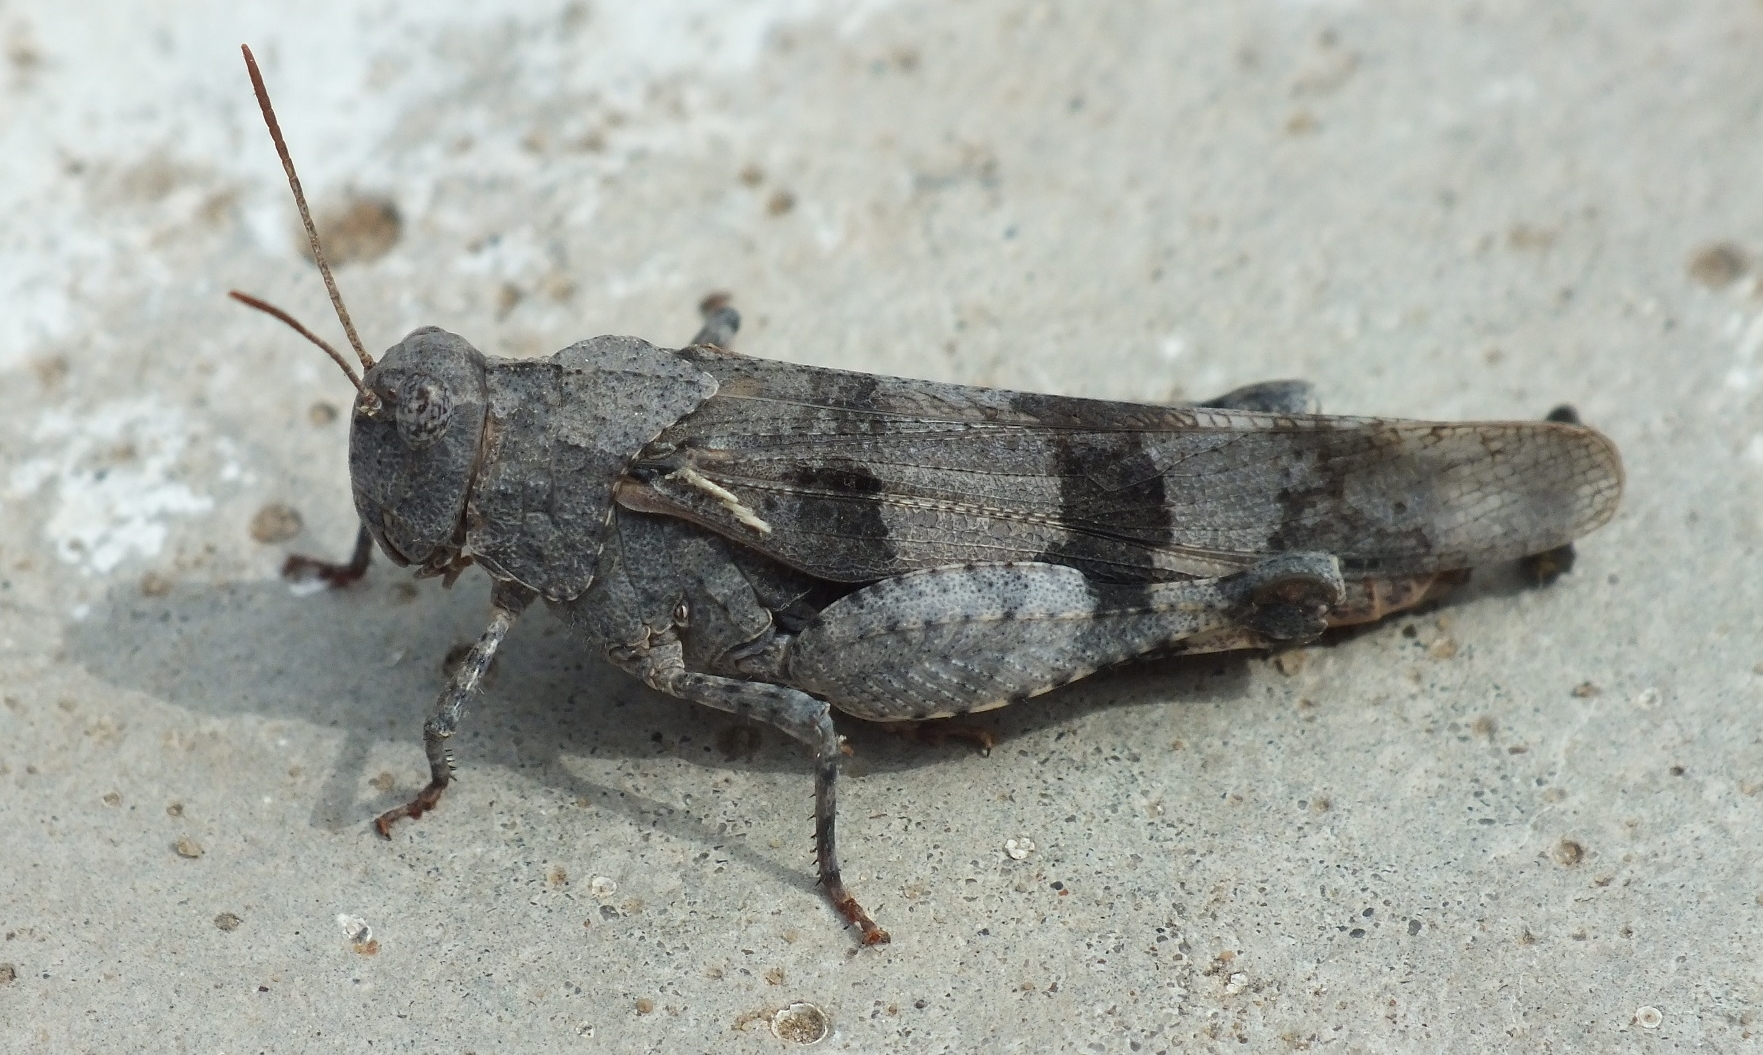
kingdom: Animalia
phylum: Arthropoda
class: Insecta
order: Orthoptera
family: Acrididae
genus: Oedipoda
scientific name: Oedipoda caerulescens
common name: Blue-winged grasshopper
